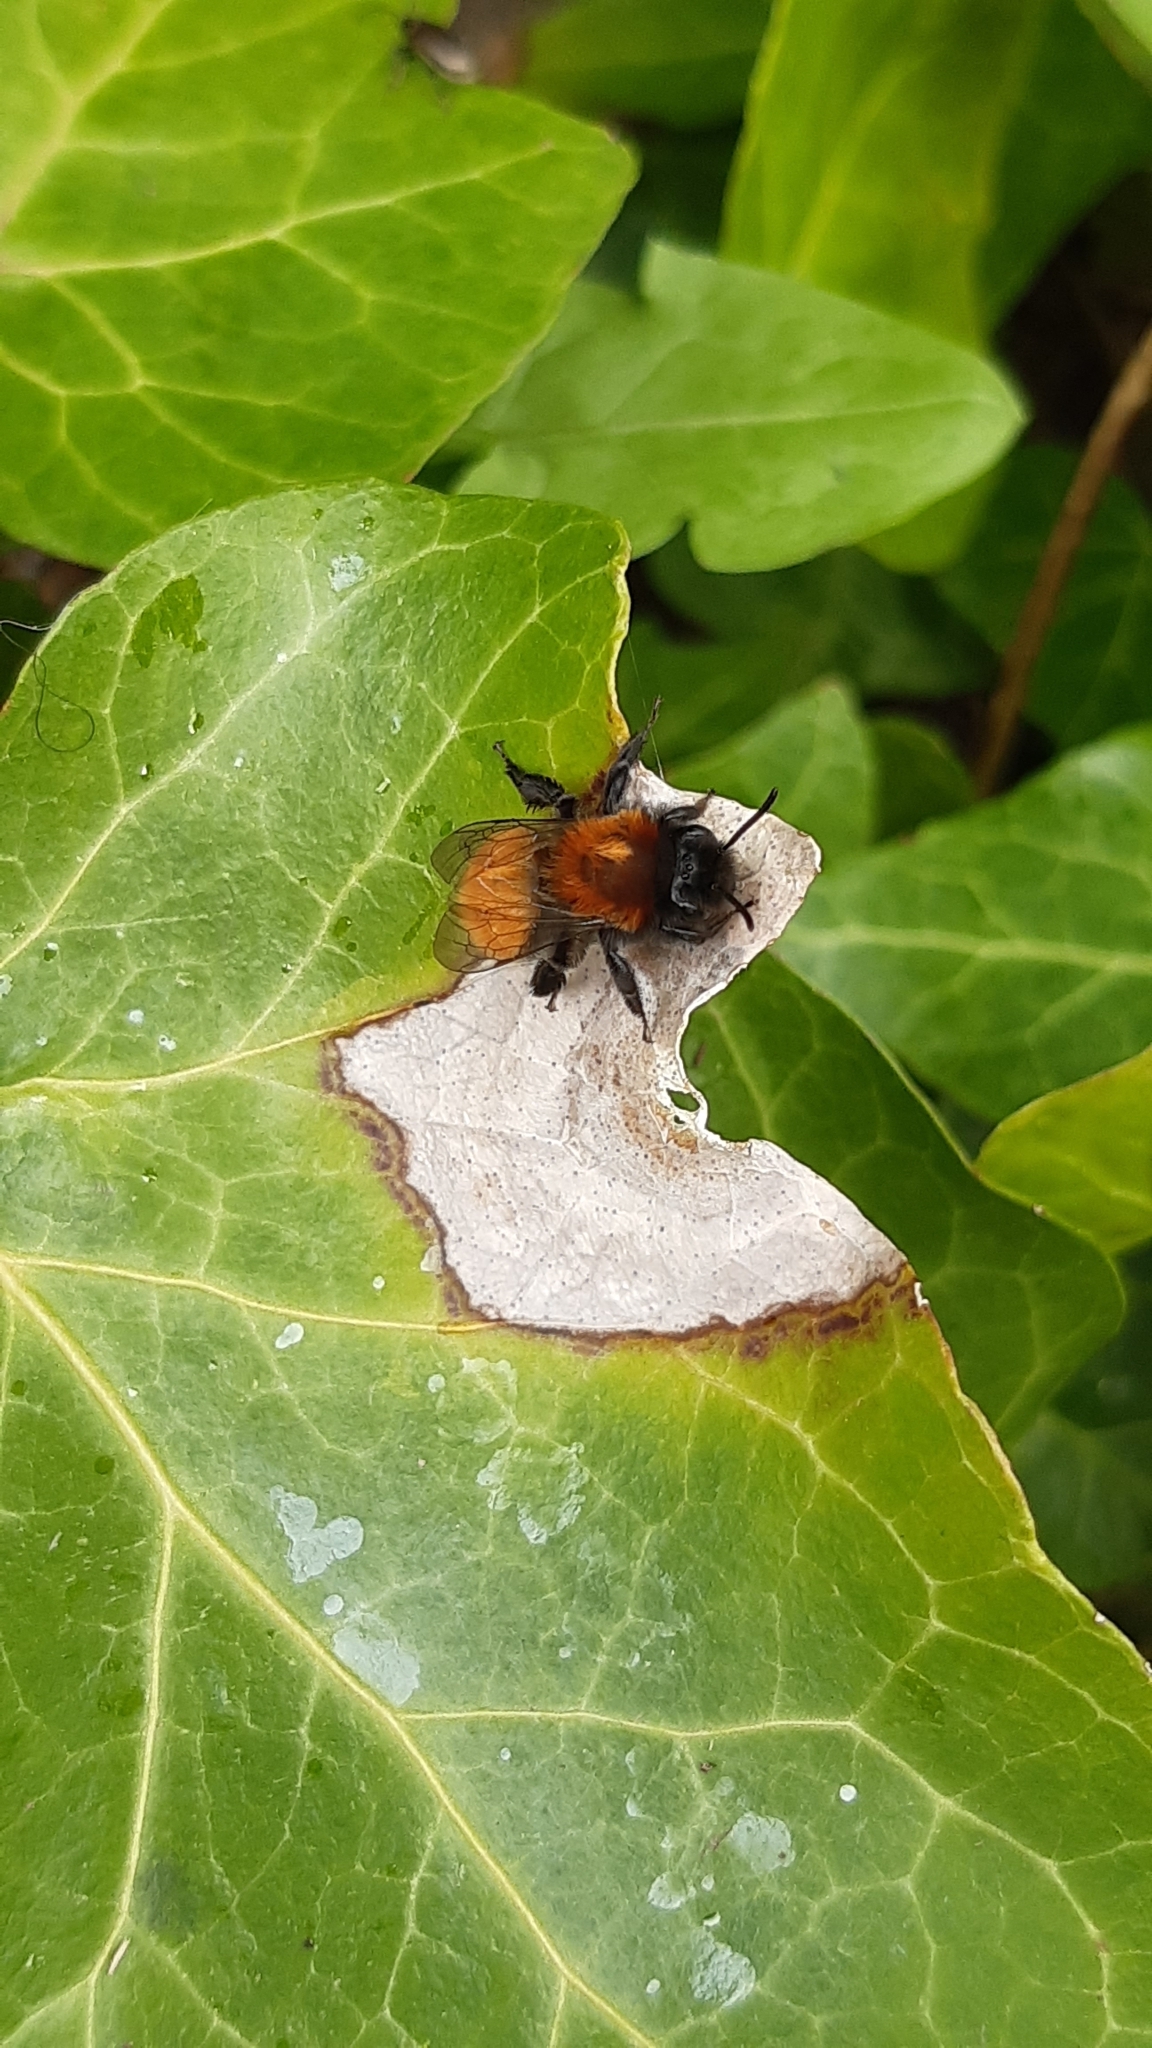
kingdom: Animalia
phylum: Arthropoda
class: Insecta
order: Hymenoptera
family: Andrenidae
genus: Andrena
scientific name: Andrena fulva
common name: Tawny mining bee
